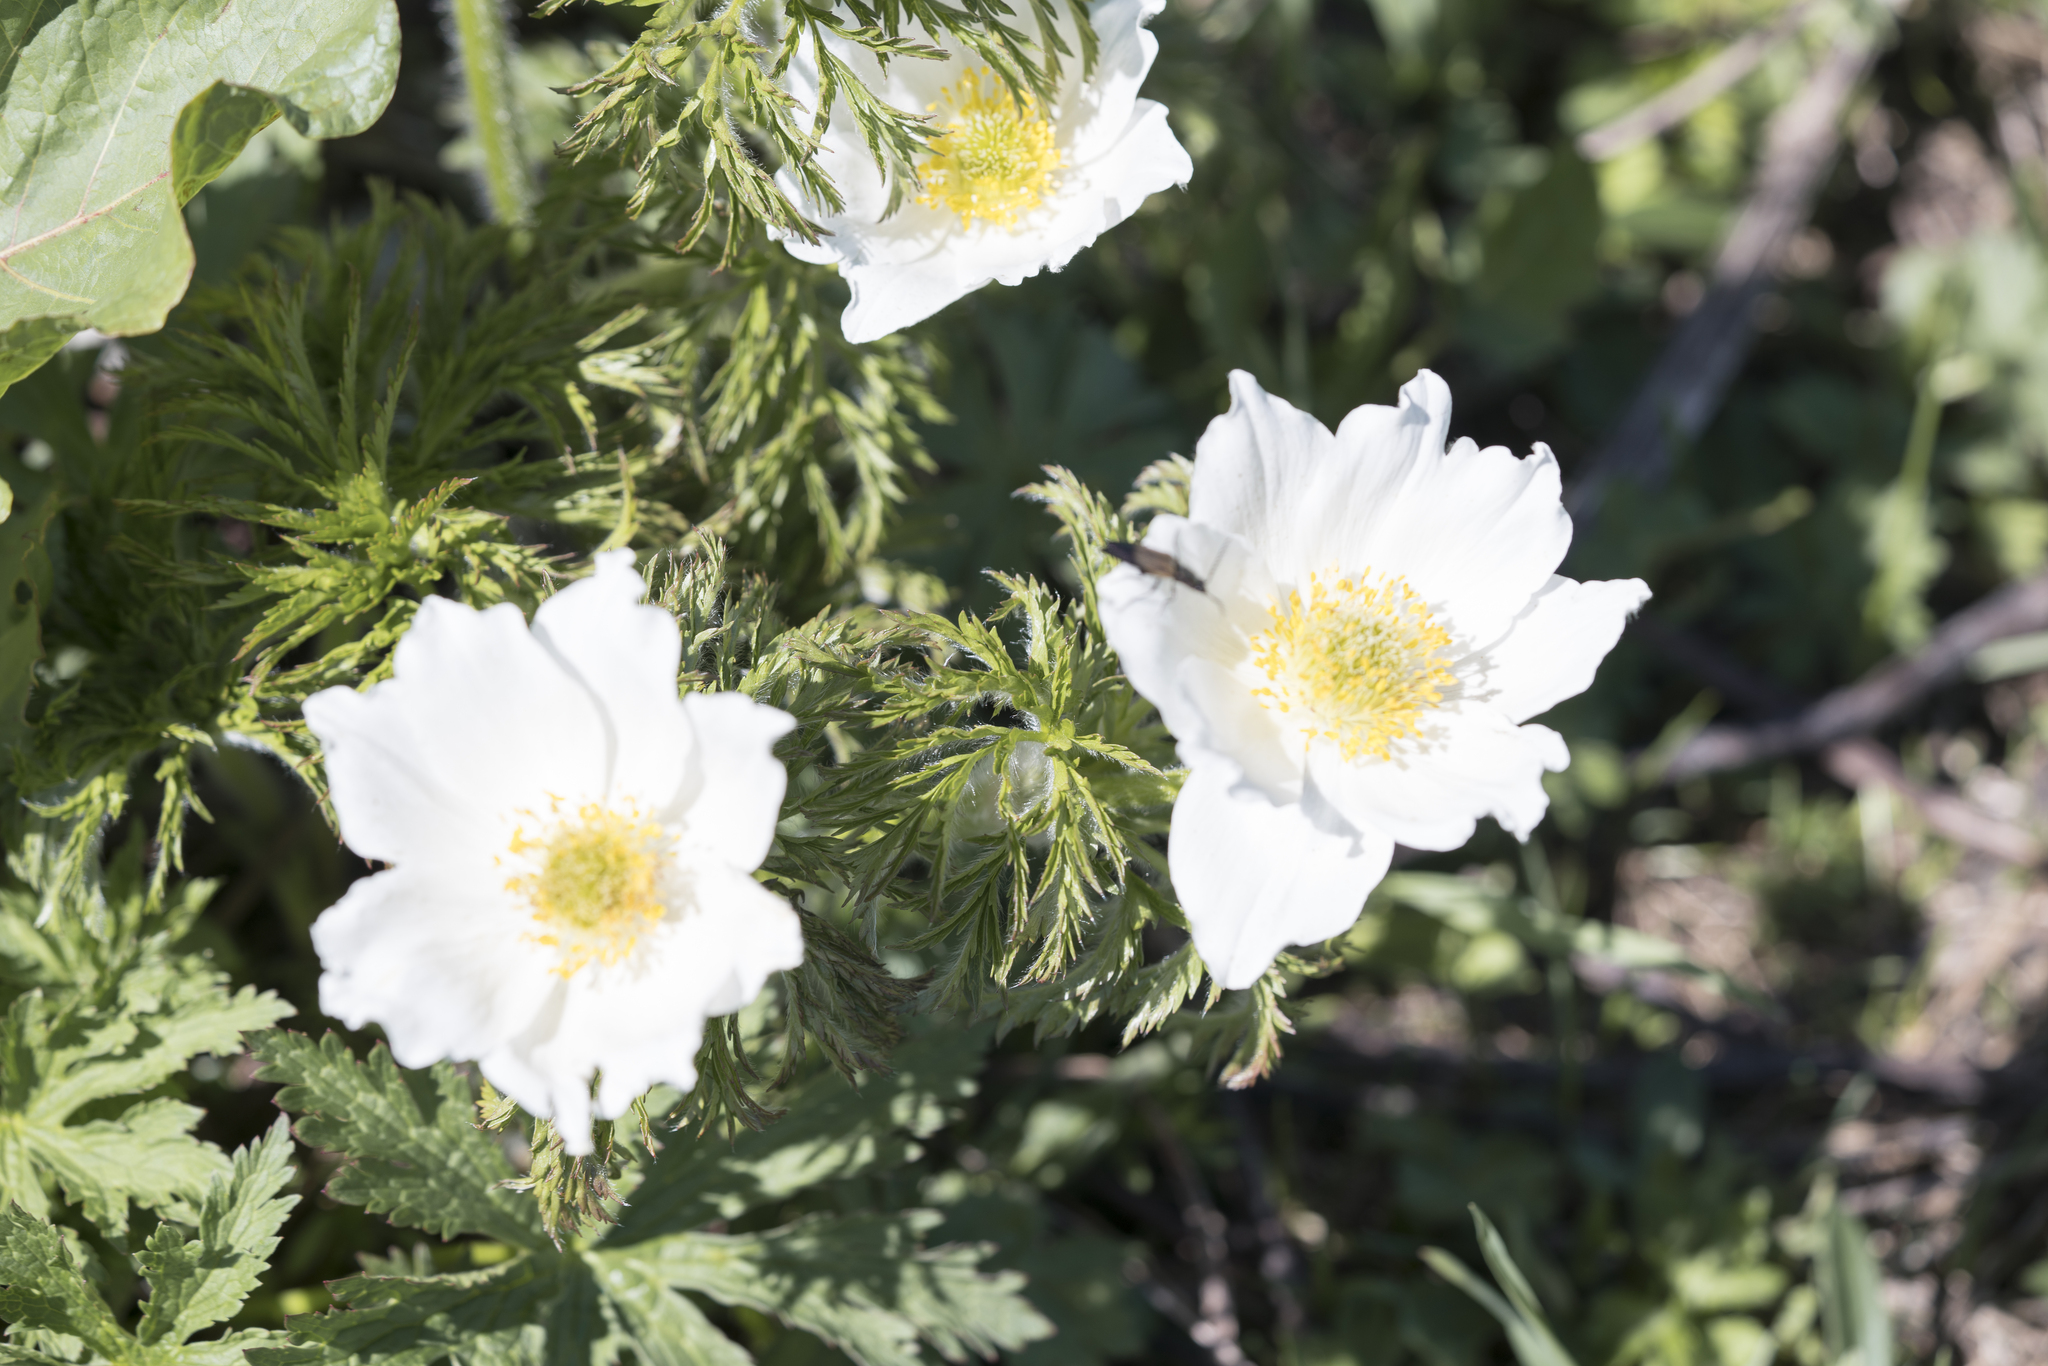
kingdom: Plantae
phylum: Tracheophyta
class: Magnoliopsida
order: Ranunculales
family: Ranunculaceae
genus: Pulsatilla
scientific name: Pulsatilla alpina
